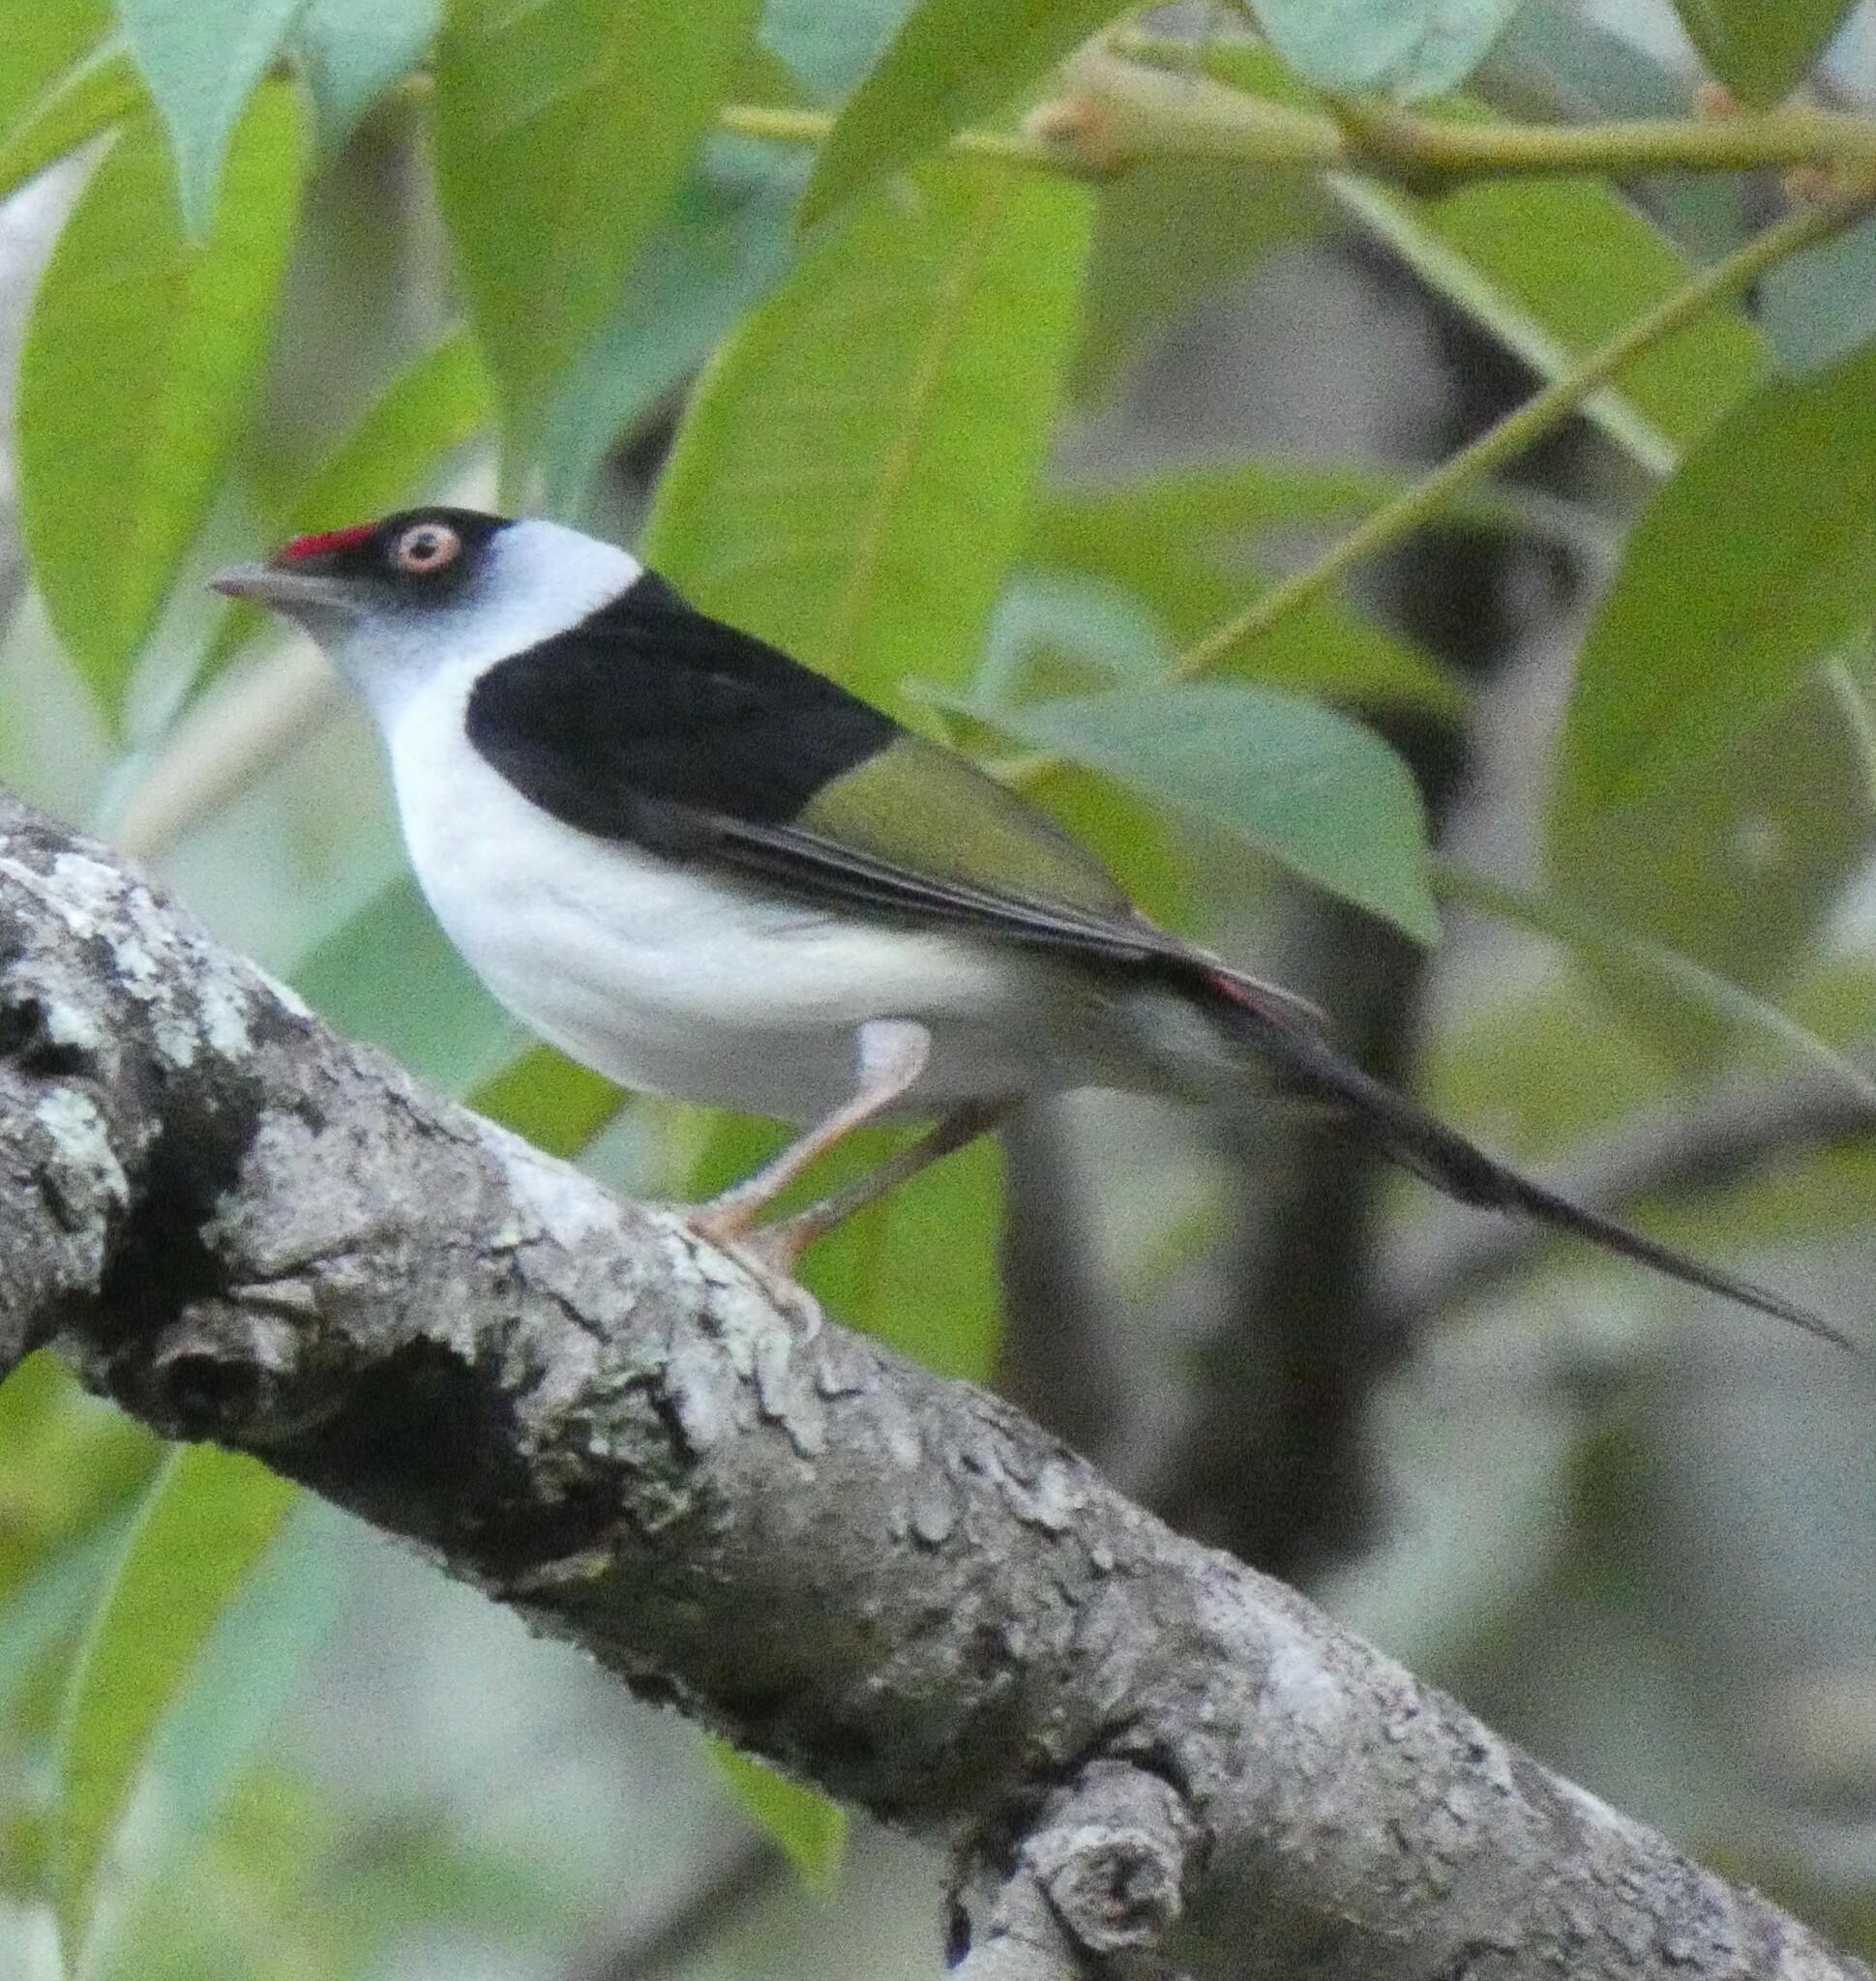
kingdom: Animalia
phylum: Chordata
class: Aves
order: Passeriformes
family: Pipridae
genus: Ilicura
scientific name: Ilicura militaris
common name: Pin-tailed manakin
